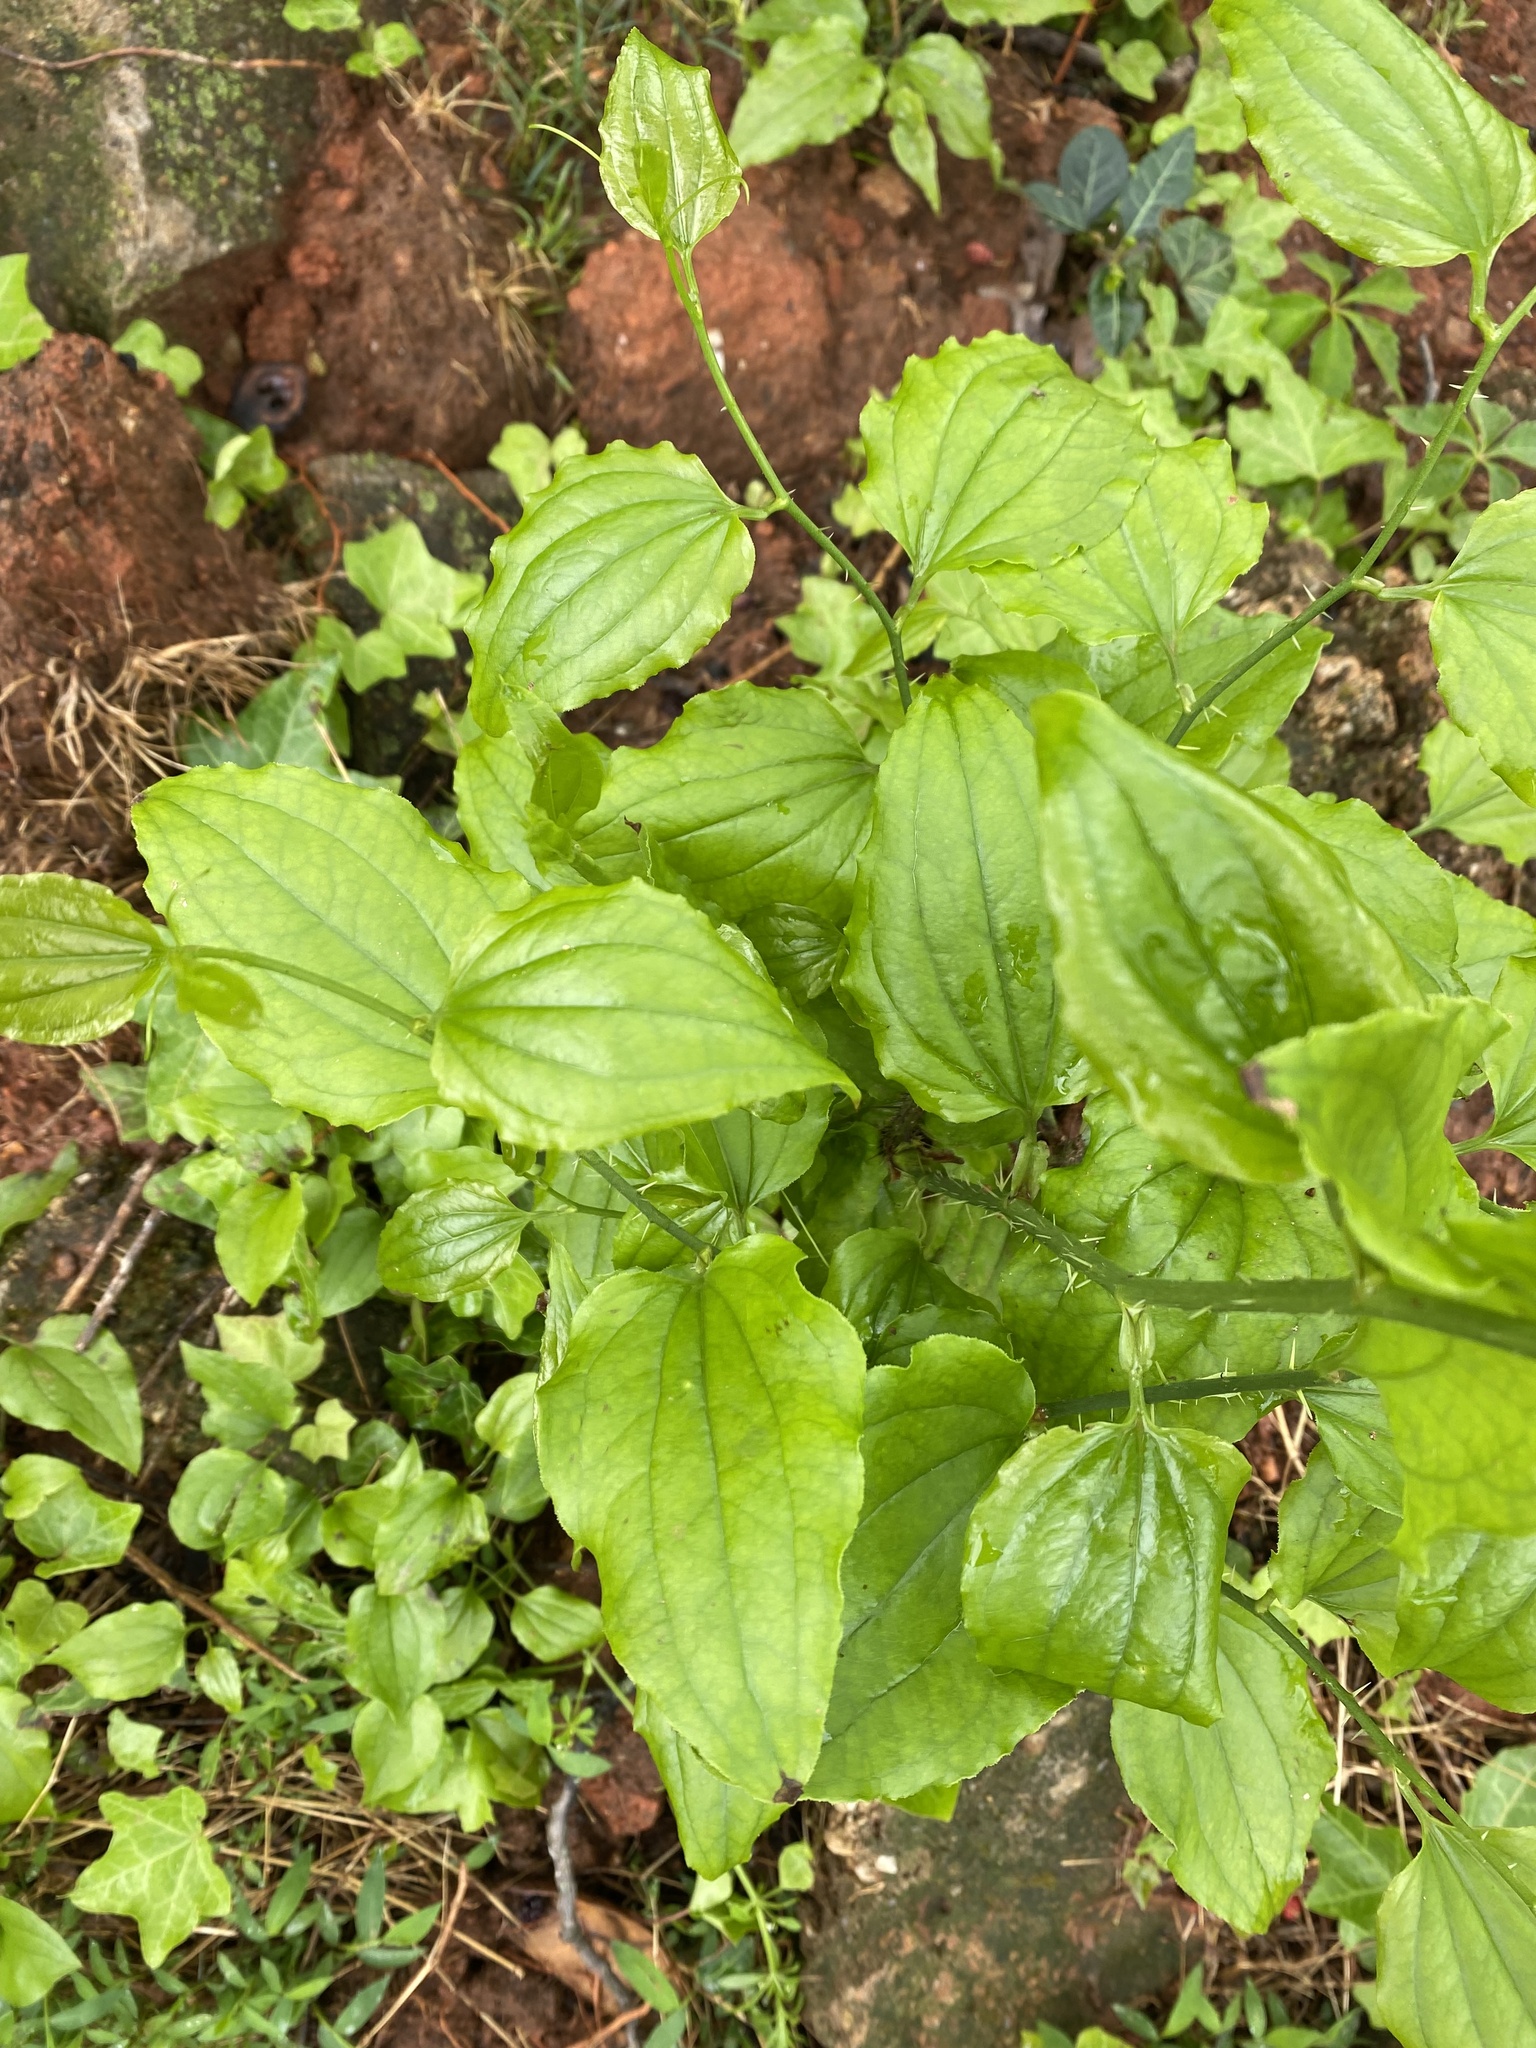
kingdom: Plantae
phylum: Tracheophyta
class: Liliopsida
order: Liliales
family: Smilacaceae
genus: Smilax
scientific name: Smilax tamnoides
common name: Hellfetter
